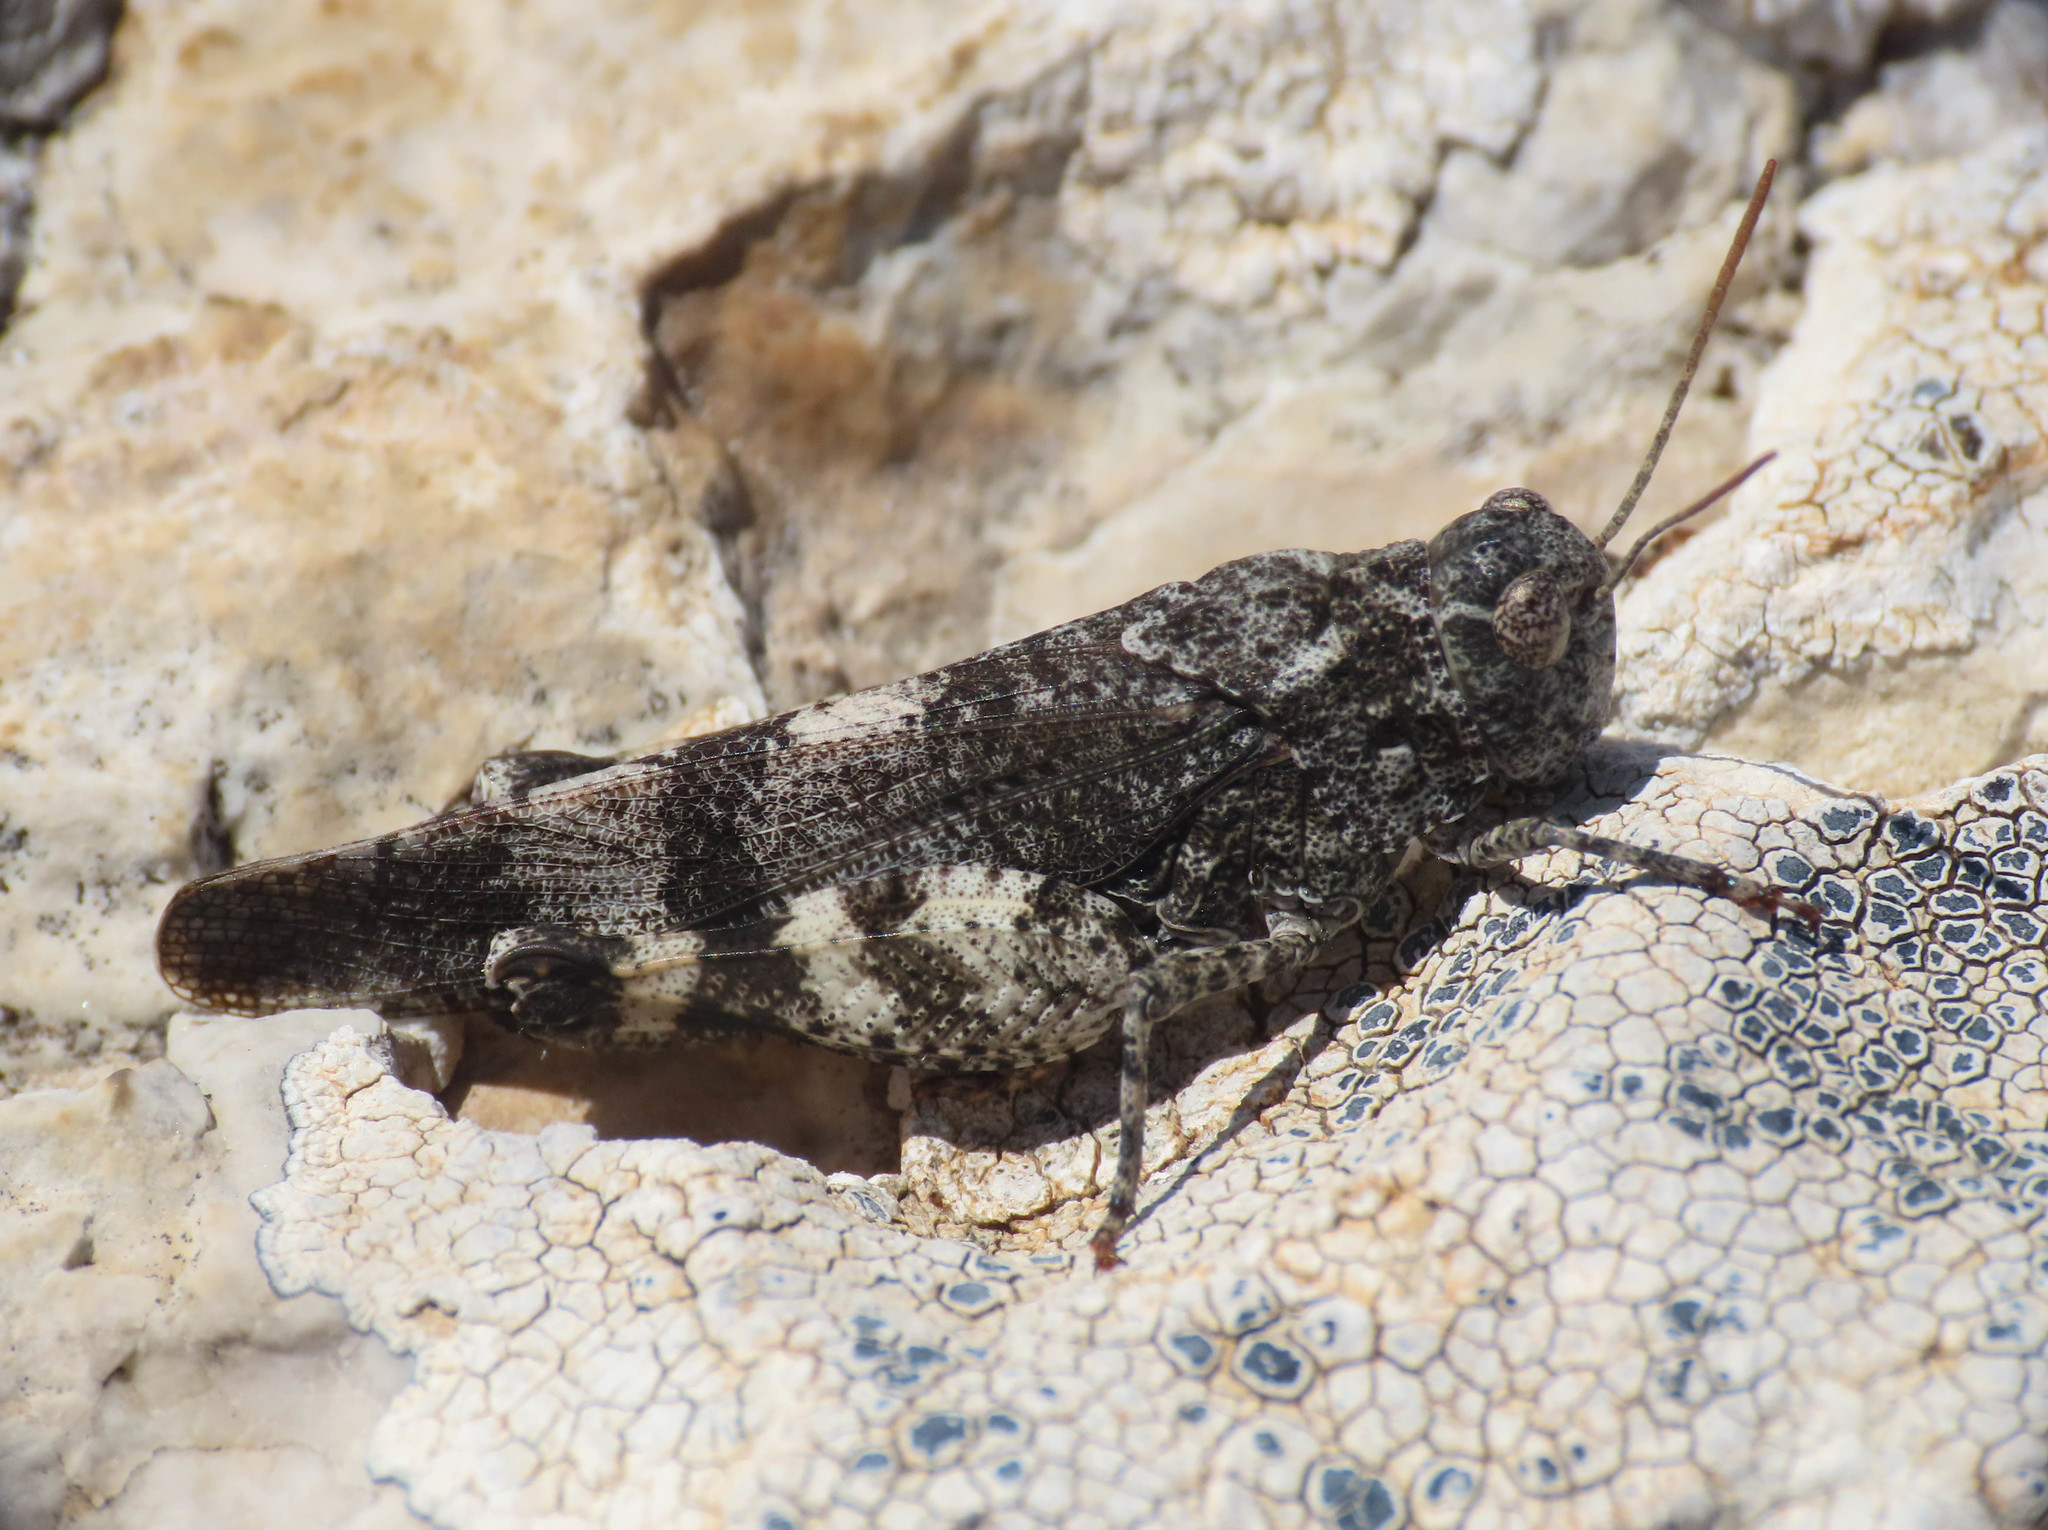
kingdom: Animalia
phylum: Arthropoda
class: Insecta
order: Orthoptera
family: Acrididae
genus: Oedipoda
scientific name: Oedipoda germanica
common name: Red band-winged grasshopper
